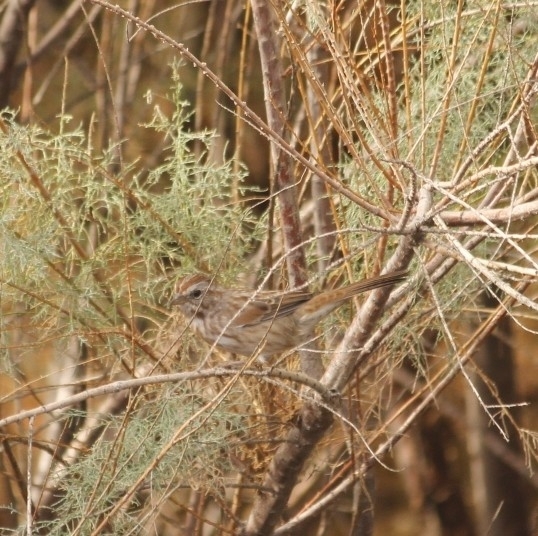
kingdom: Animalia
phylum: Chordata
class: Aves
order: Passeriformes
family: Passerellidae
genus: Melospiza
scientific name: Melospiza melodia
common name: Song sparrow
